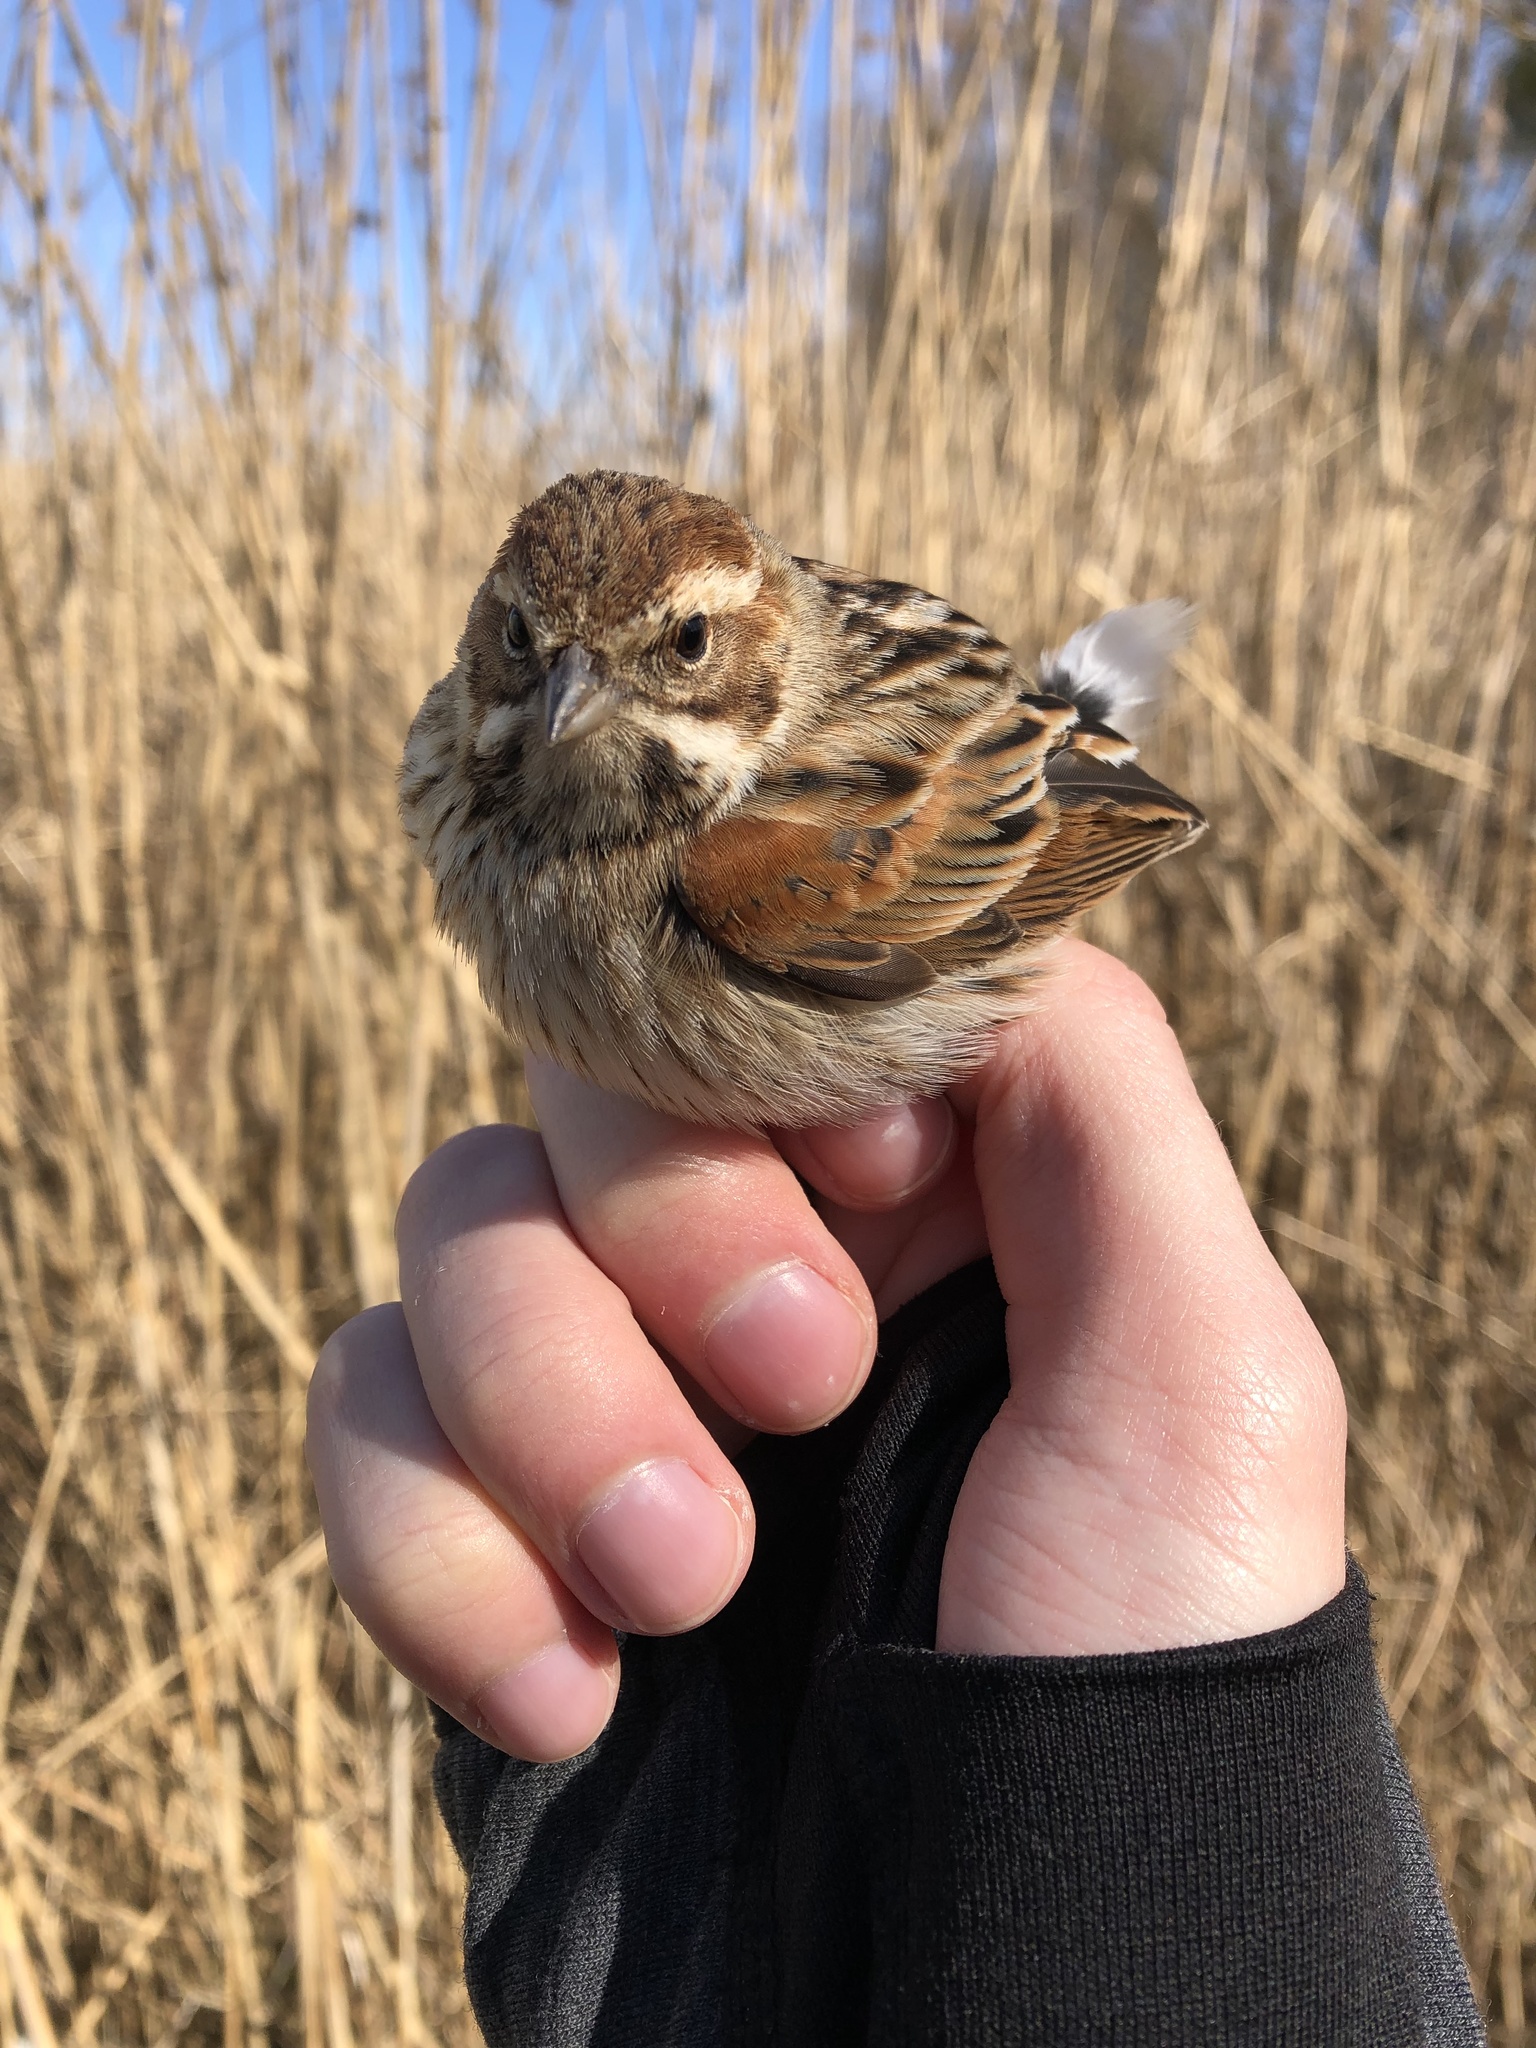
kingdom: Animalia
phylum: Chordata
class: Aves
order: Passeriformes
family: Emberizidae
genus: Emberiza
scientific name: Emberiza schoeniclus
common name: Reed bunting
